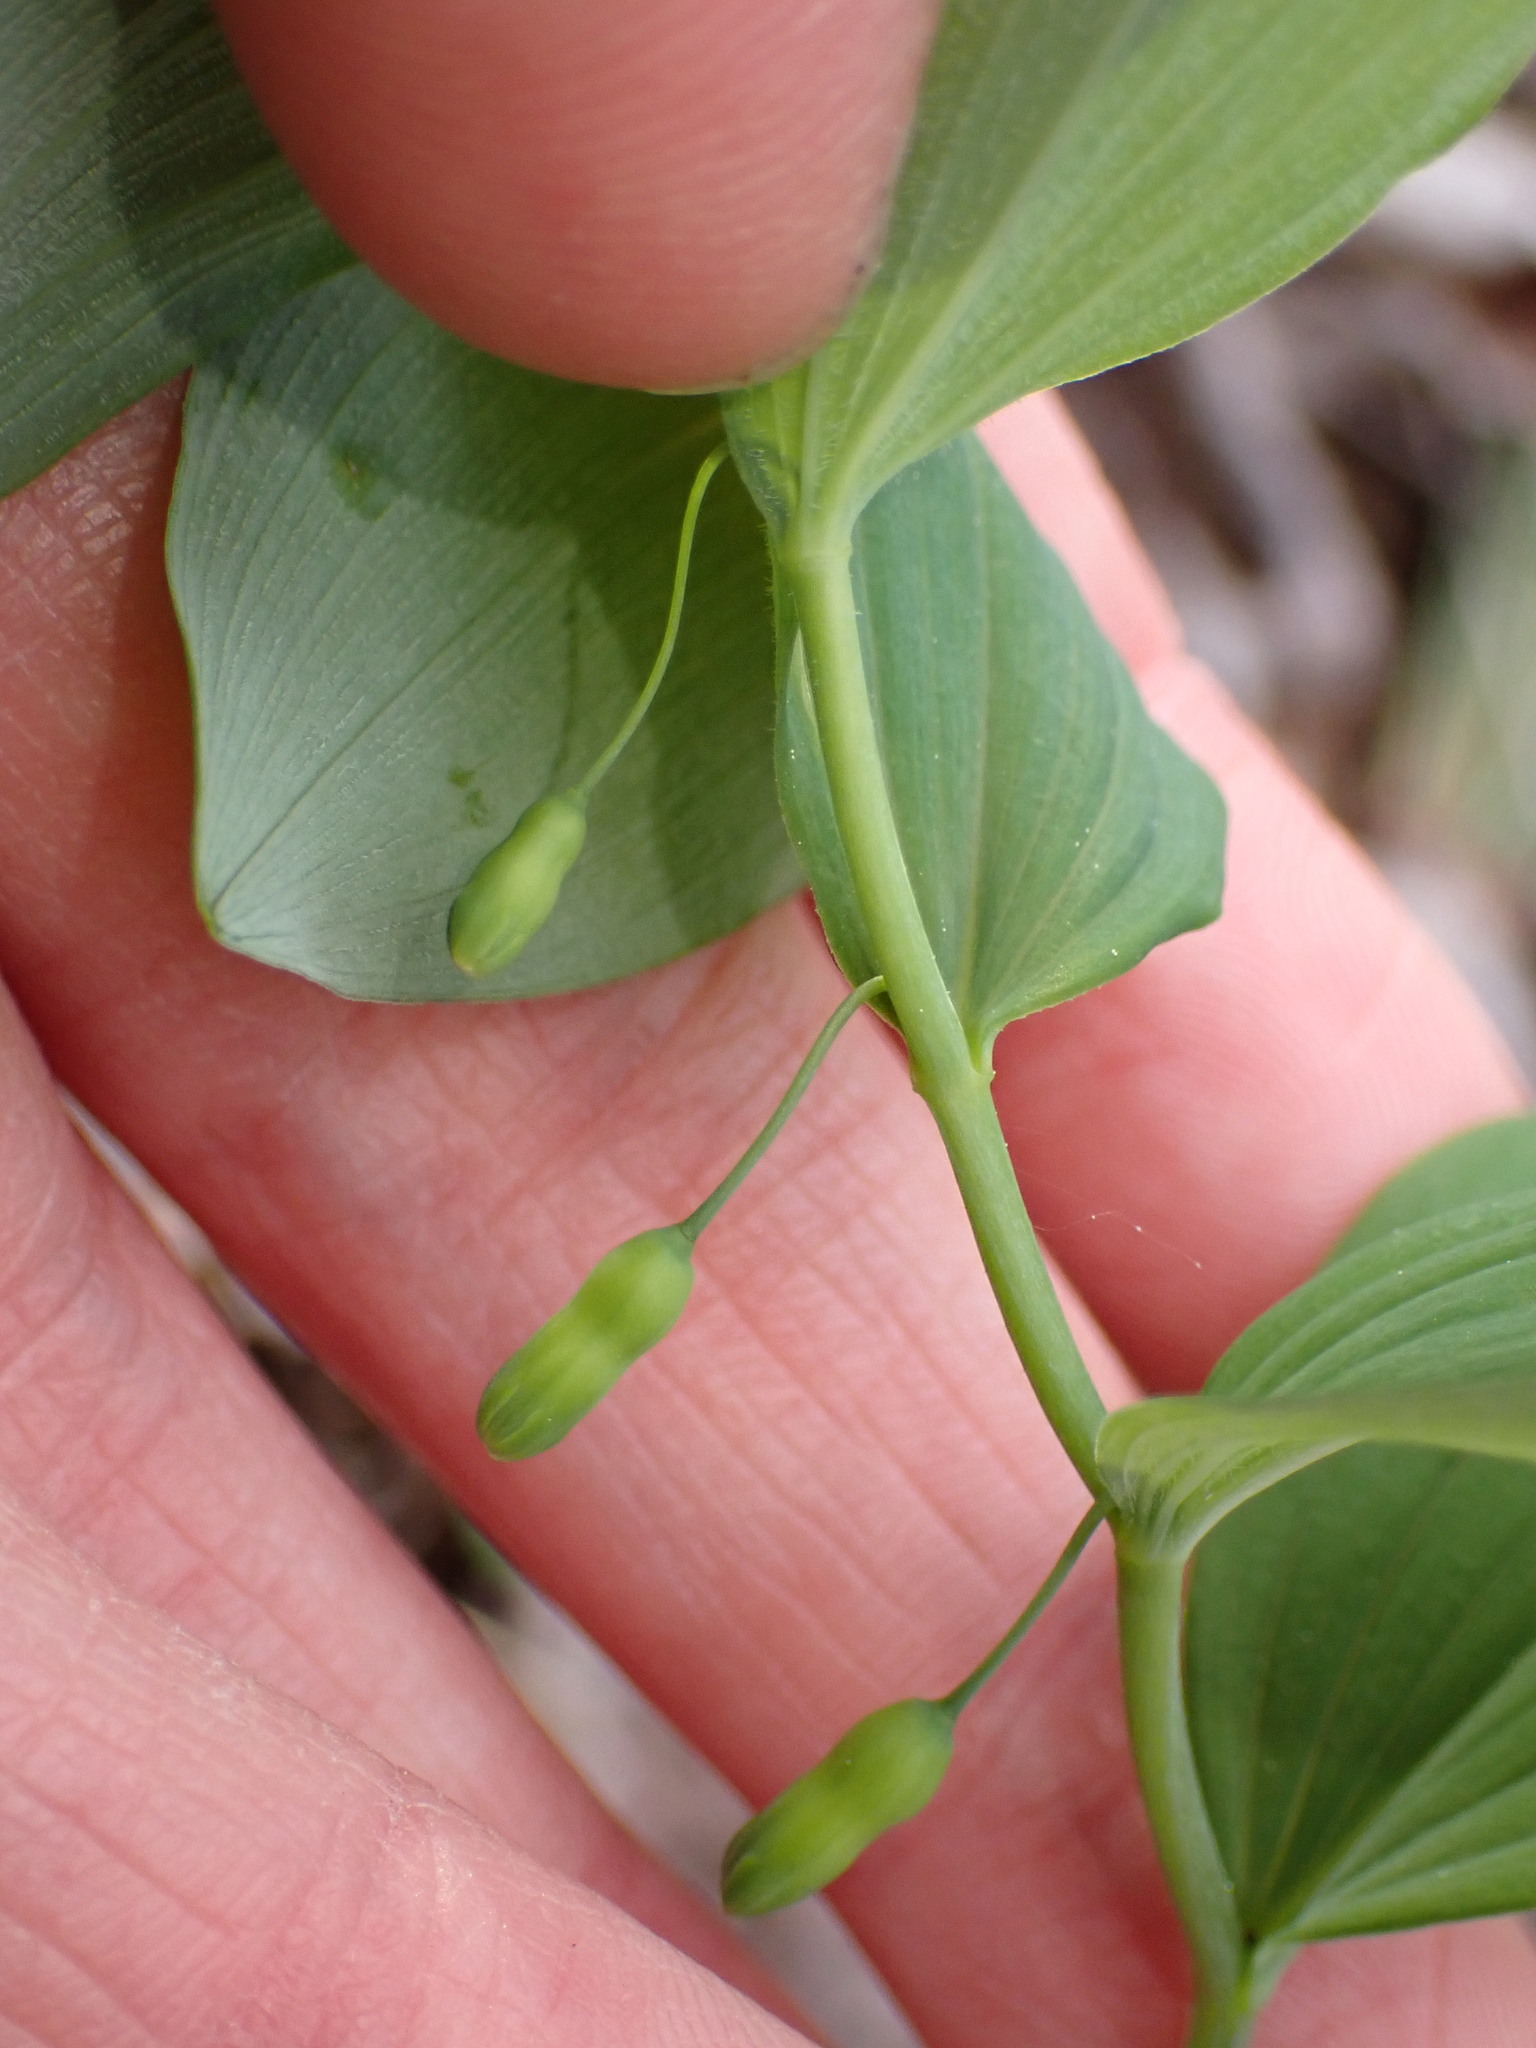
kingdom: Plantae
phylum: Tracheophyta
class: Liliopsida
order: Asparagales
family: Asparagaceae
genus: Polygonatum
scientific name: Polygonatum pubescens
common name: Downy solomon's seal
